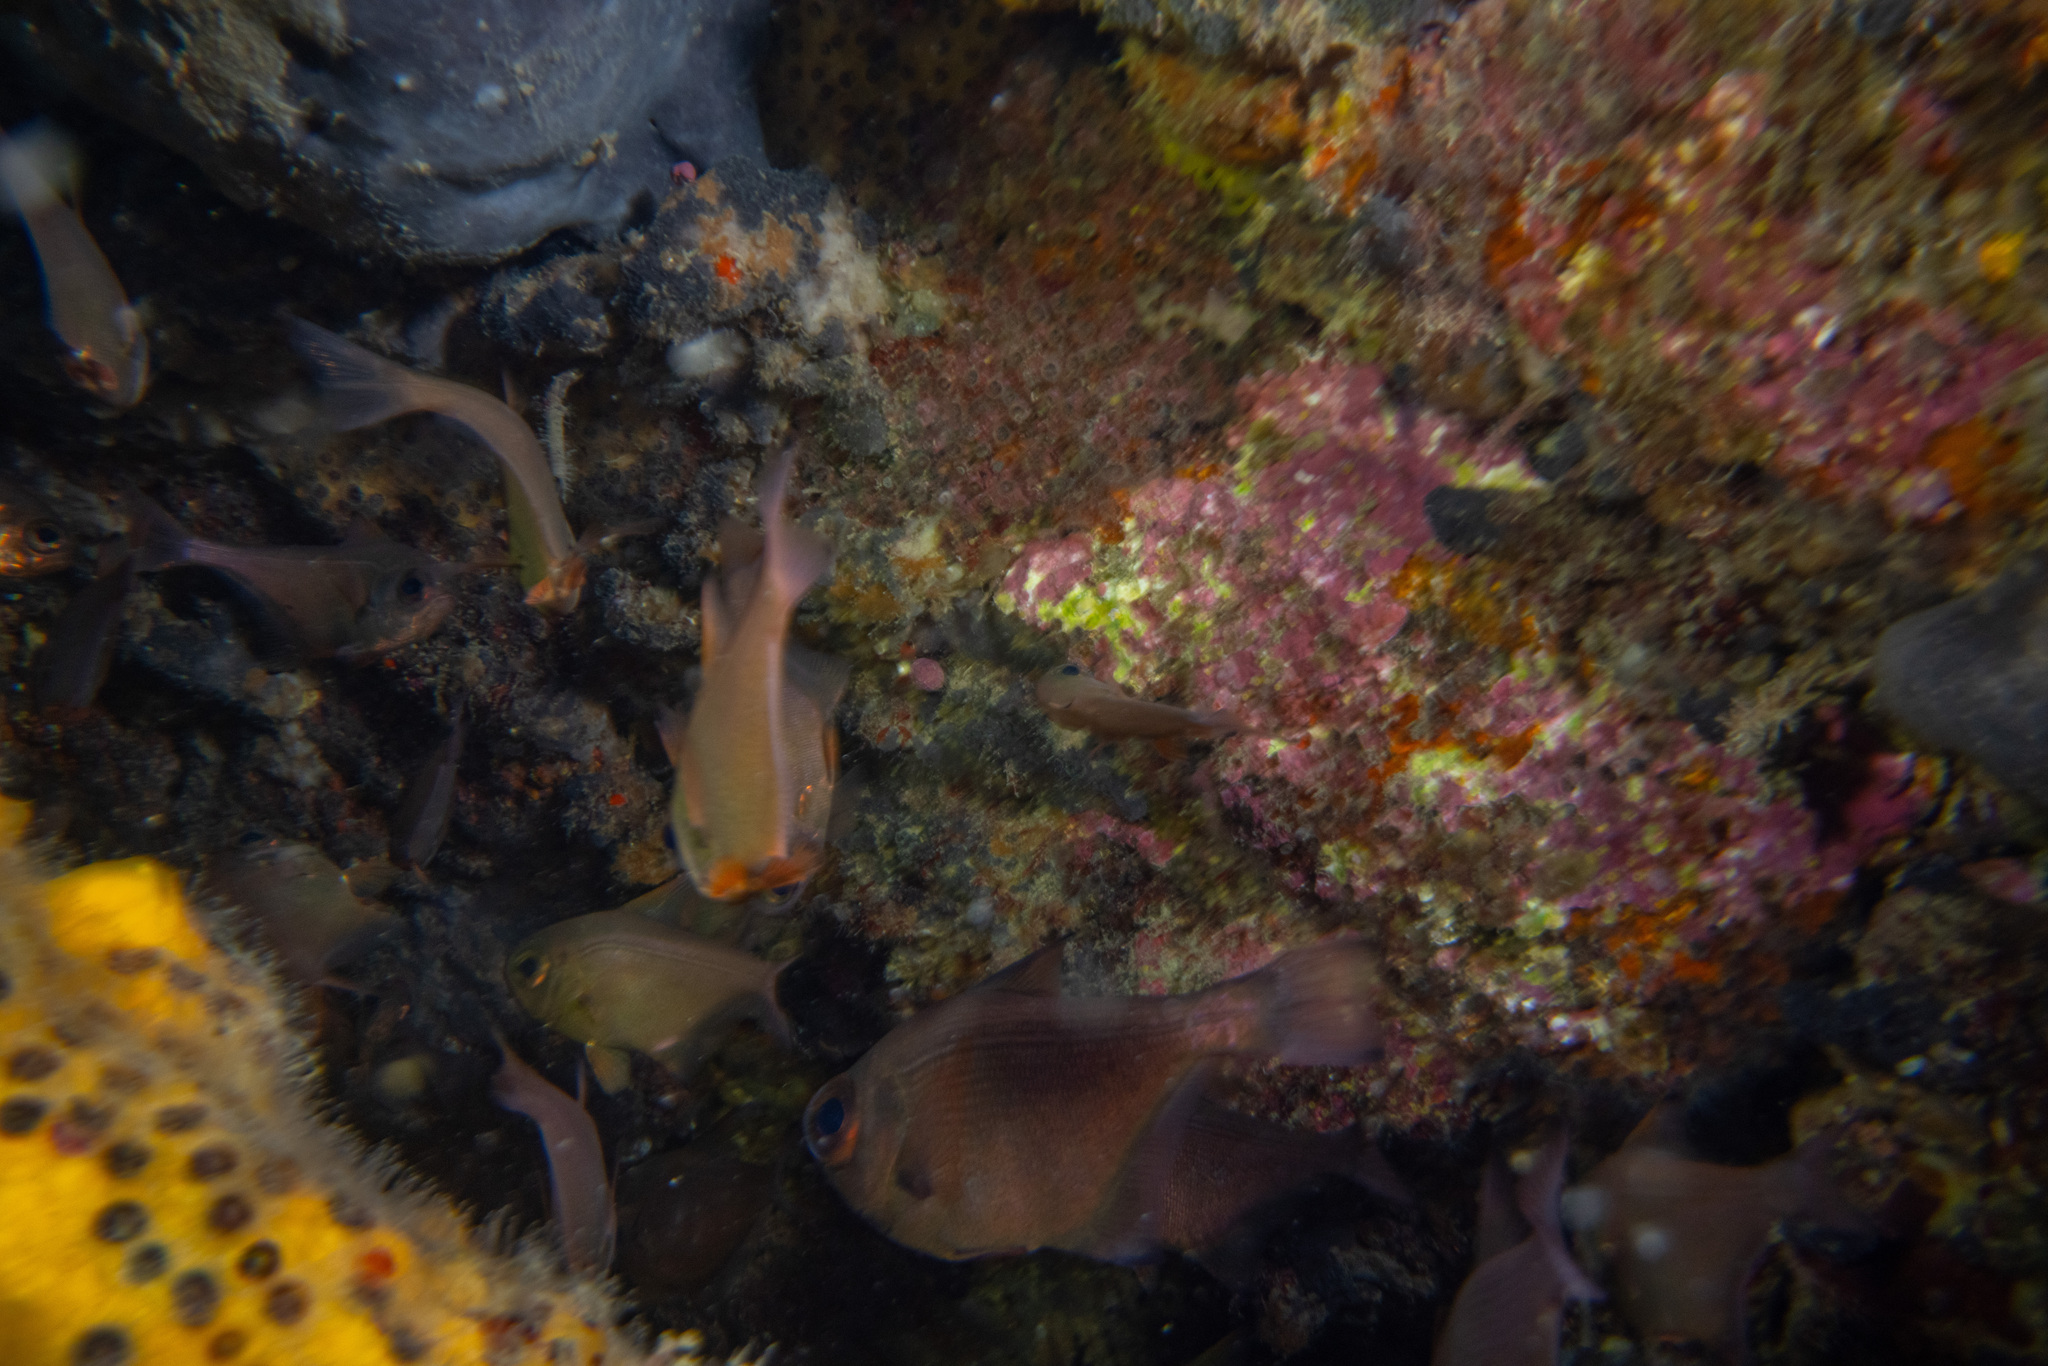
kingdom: Animalia
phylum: Chordata
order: Perciformes
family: Pempheridae
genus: Pempheris
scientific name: Pempheris adspersa
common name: Bigeye
